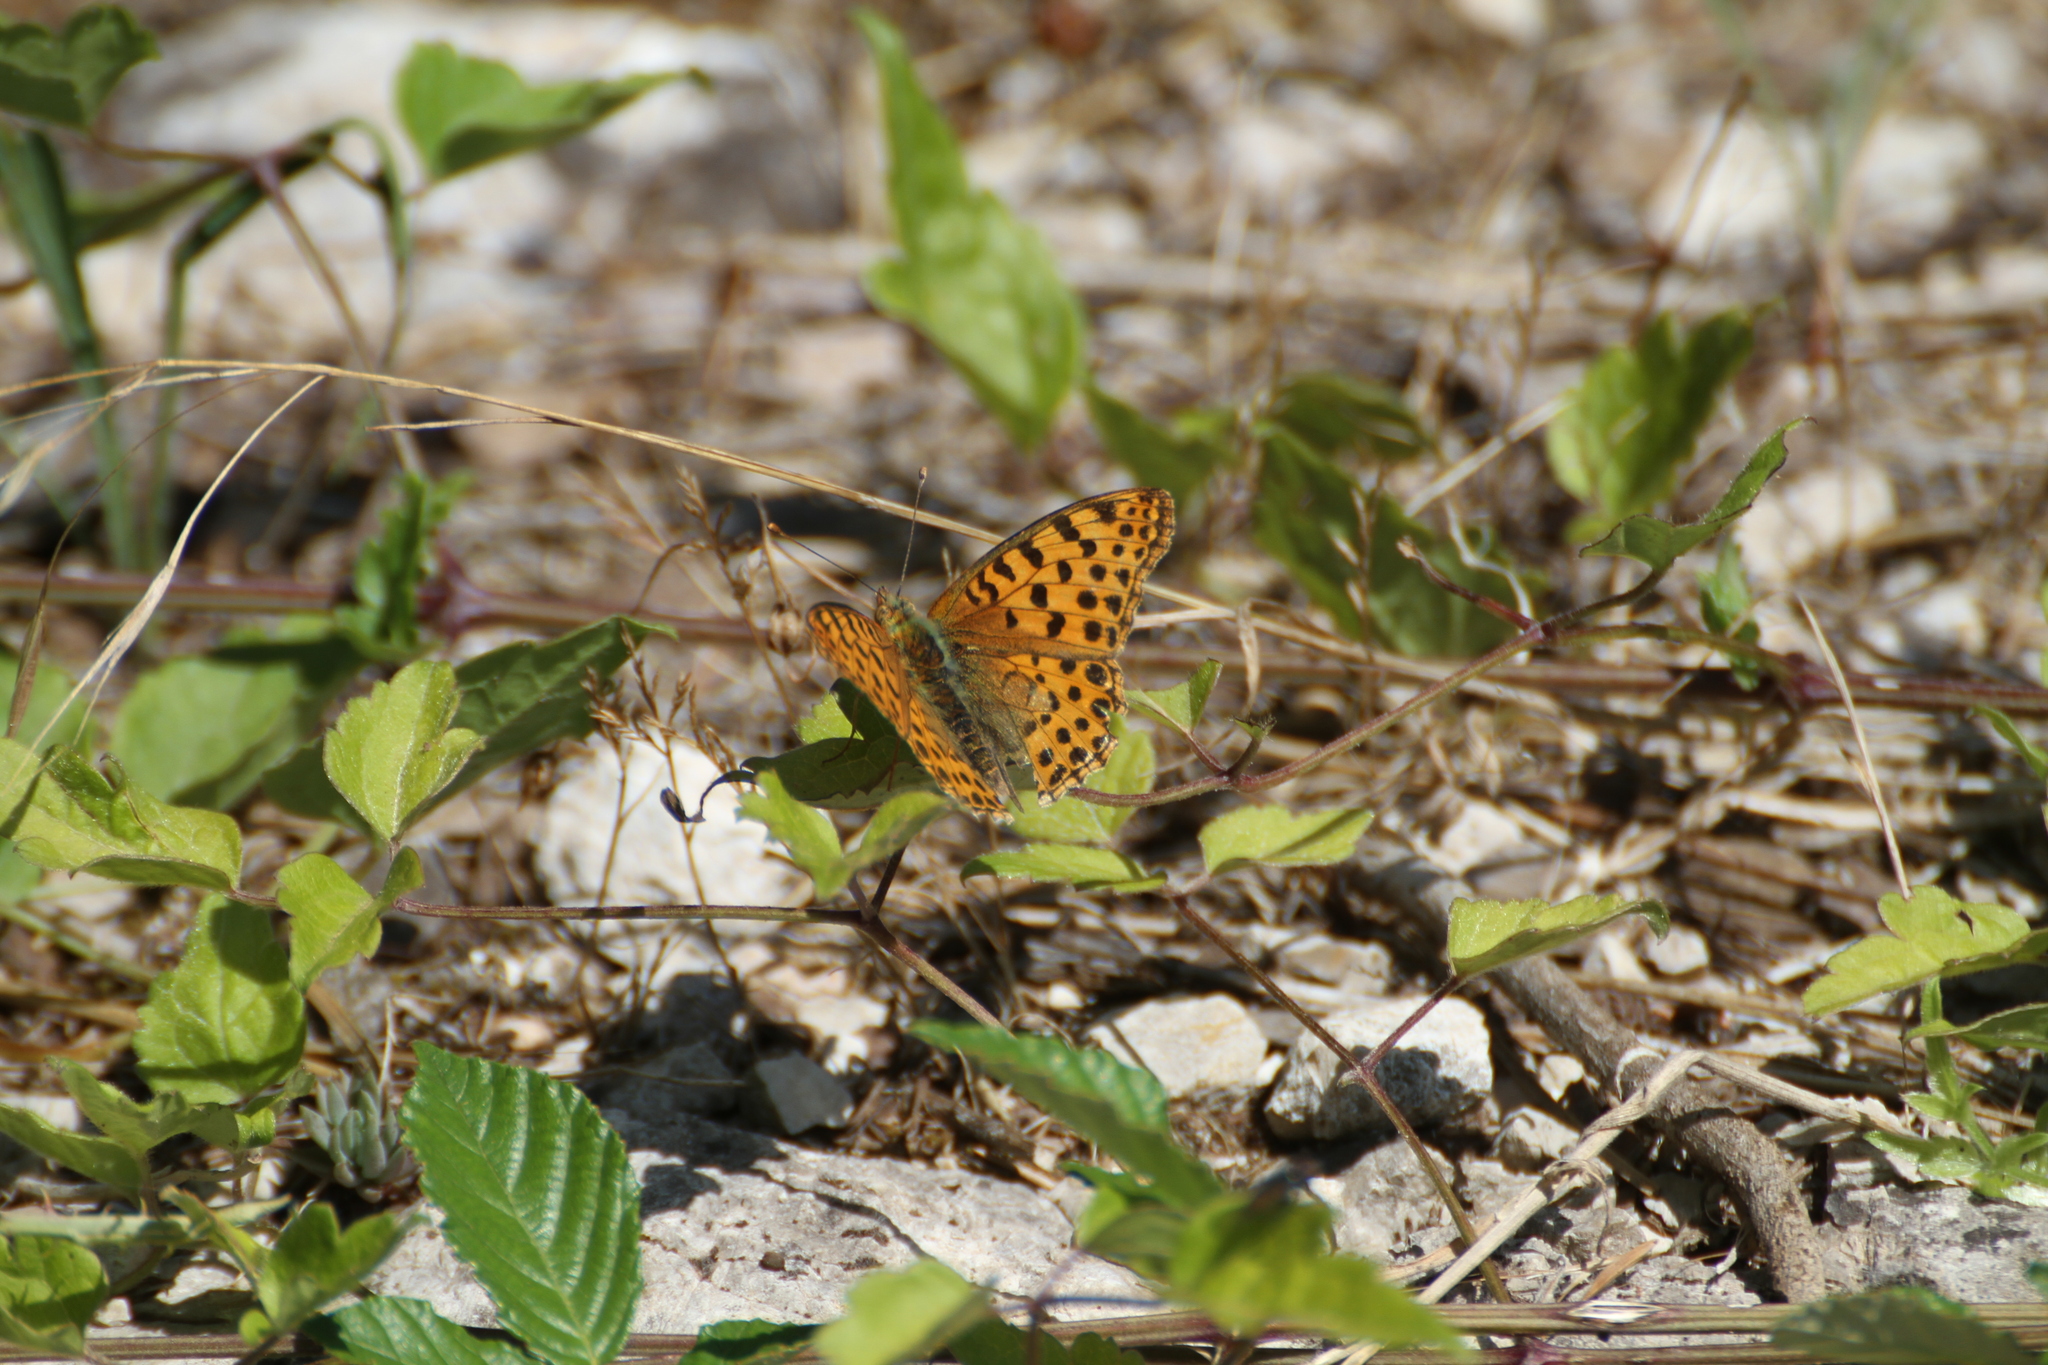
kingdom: Animalia
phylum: Arthropoda
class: Insecta
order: Lepidoptera
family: Nymphalidae
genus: Issoria
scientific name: Issoria lathonia
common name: Queen of spain fritillary
